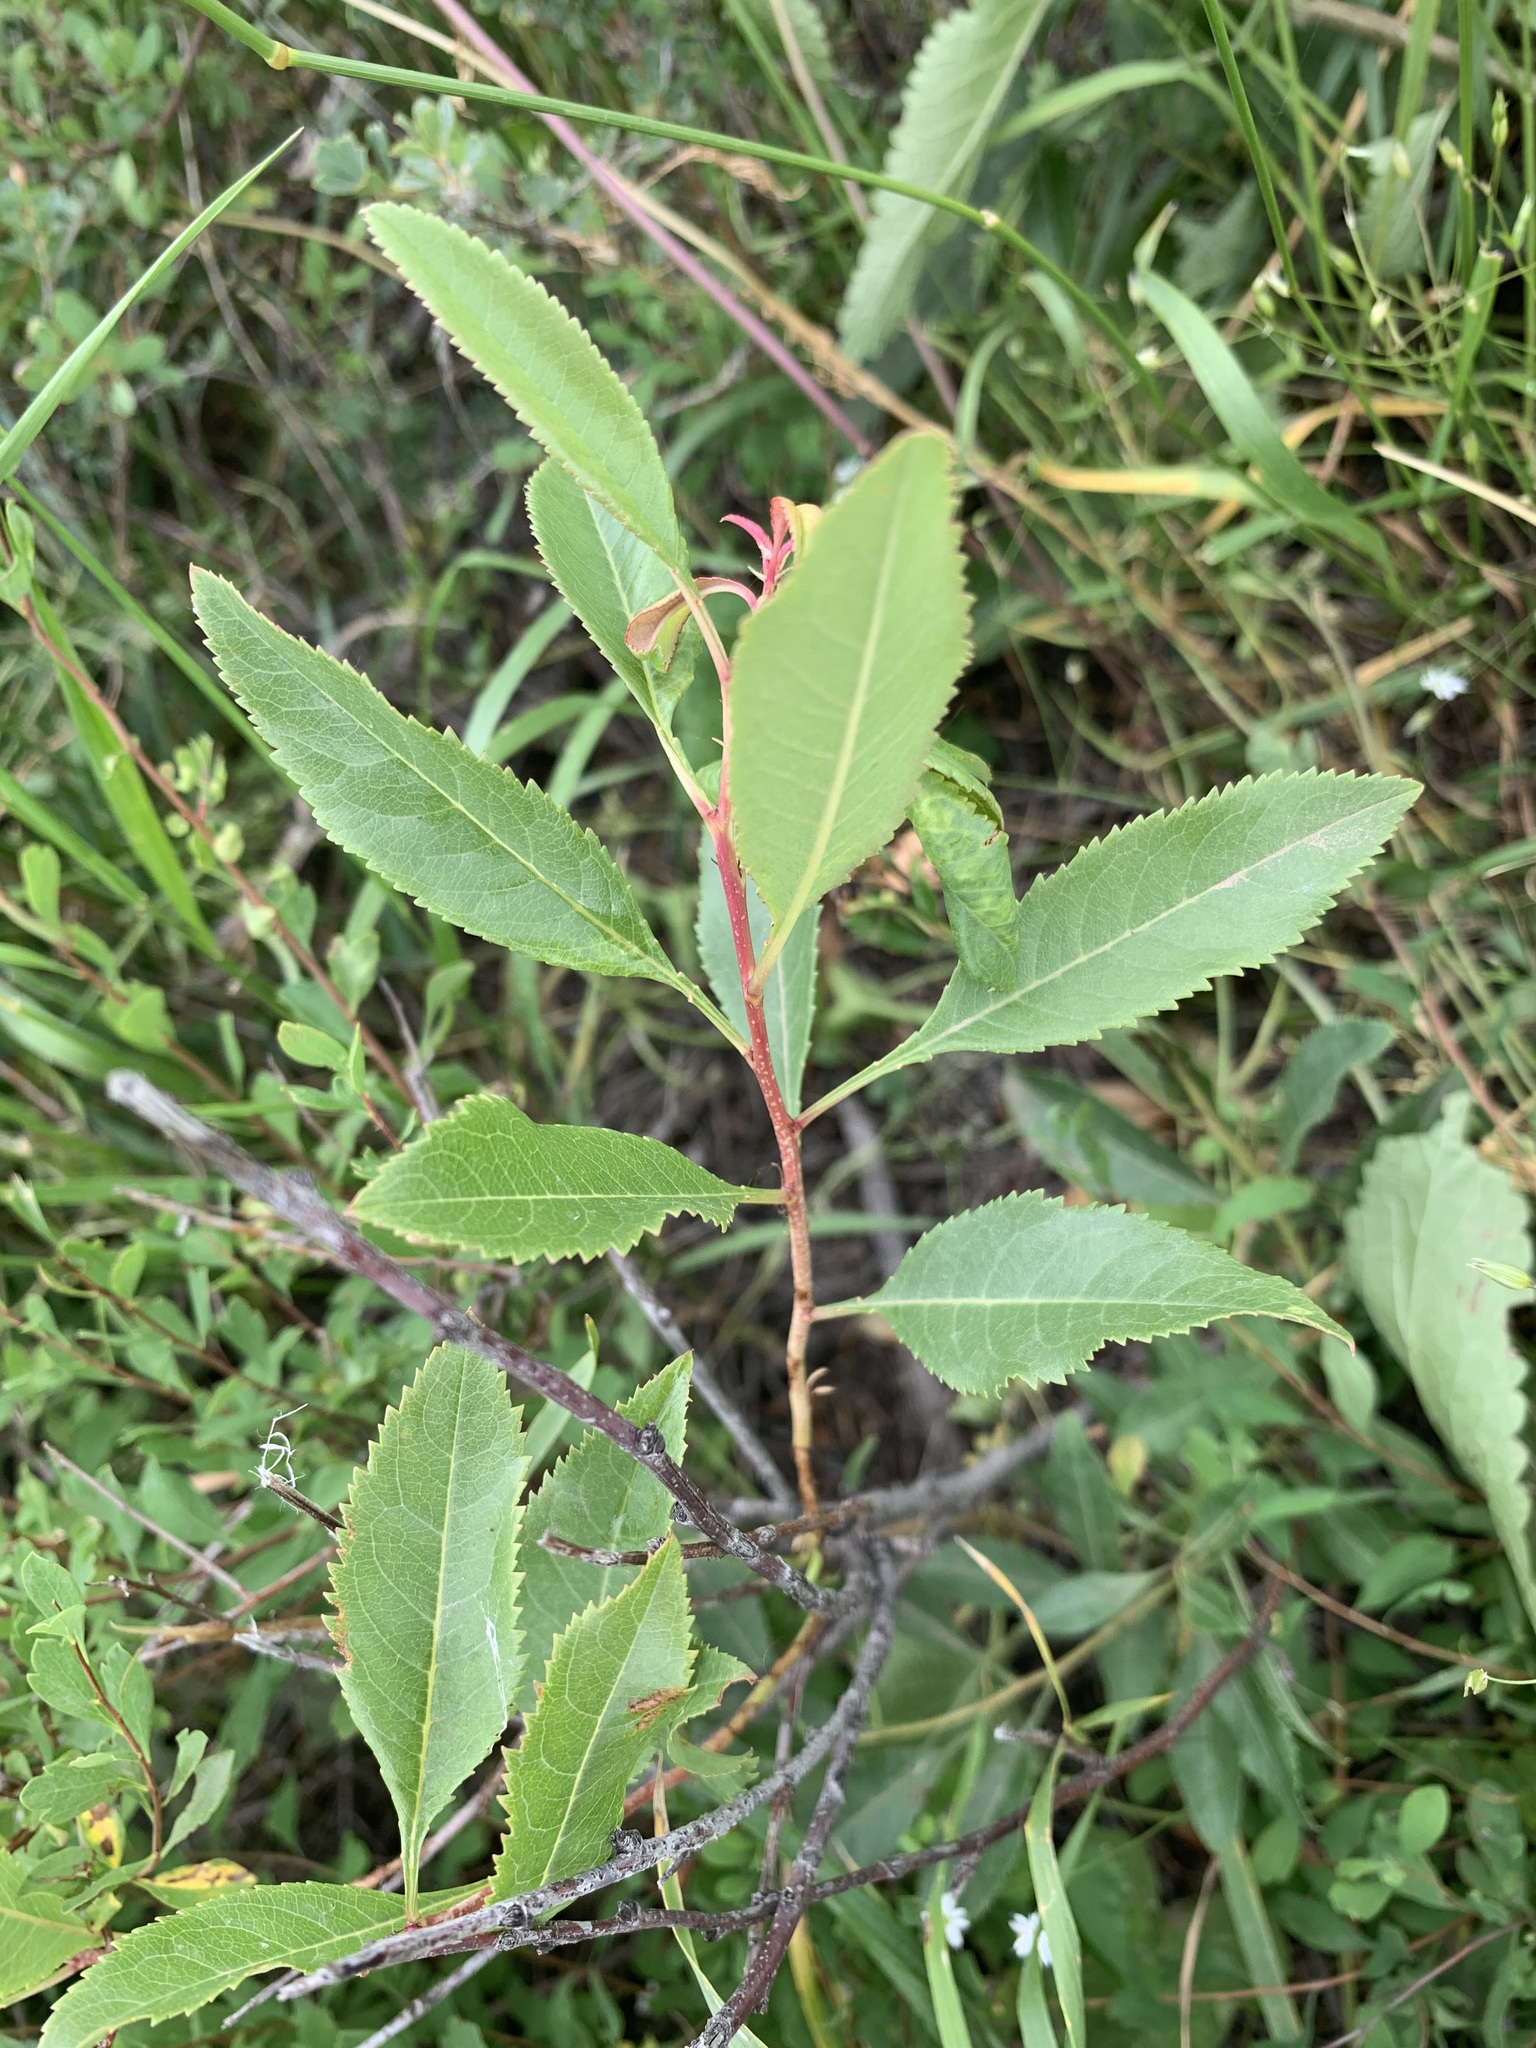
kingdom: Plantae
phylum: Tracheophyta
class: Magnoliopsida
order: Rosales
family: Rosaceae
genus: Prunus
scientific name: Prunus tenella
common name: Dwarf russian almond
